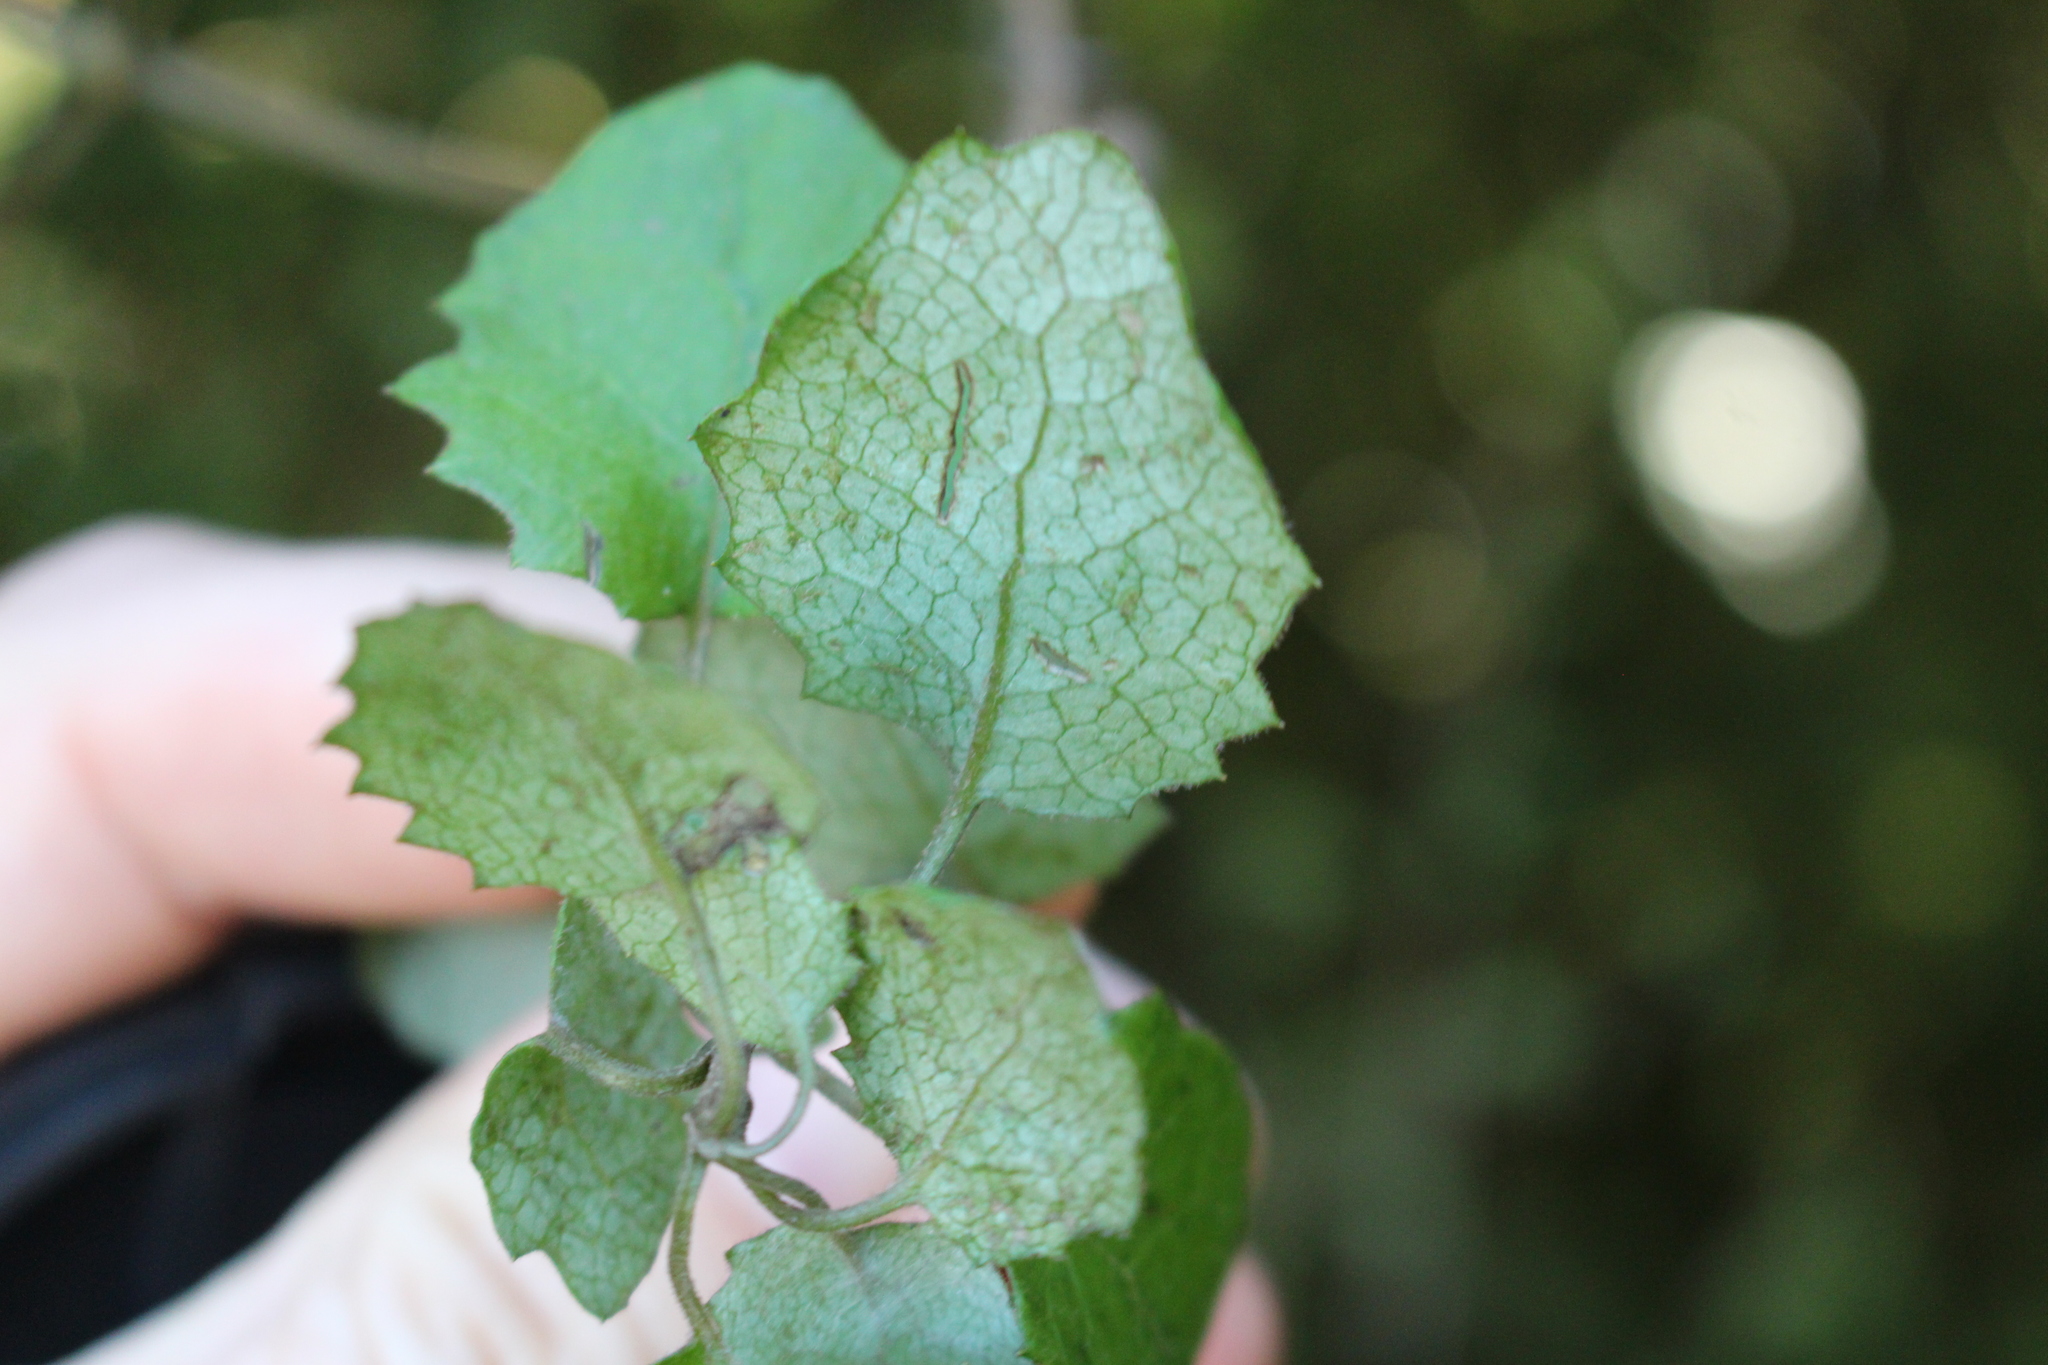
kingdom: Plantae
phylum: Tracheophyta
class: Magnoliopsida
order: Asterales
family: Asteraceae
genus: Brachyglottis
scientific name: Brachyglottis sciadophila
